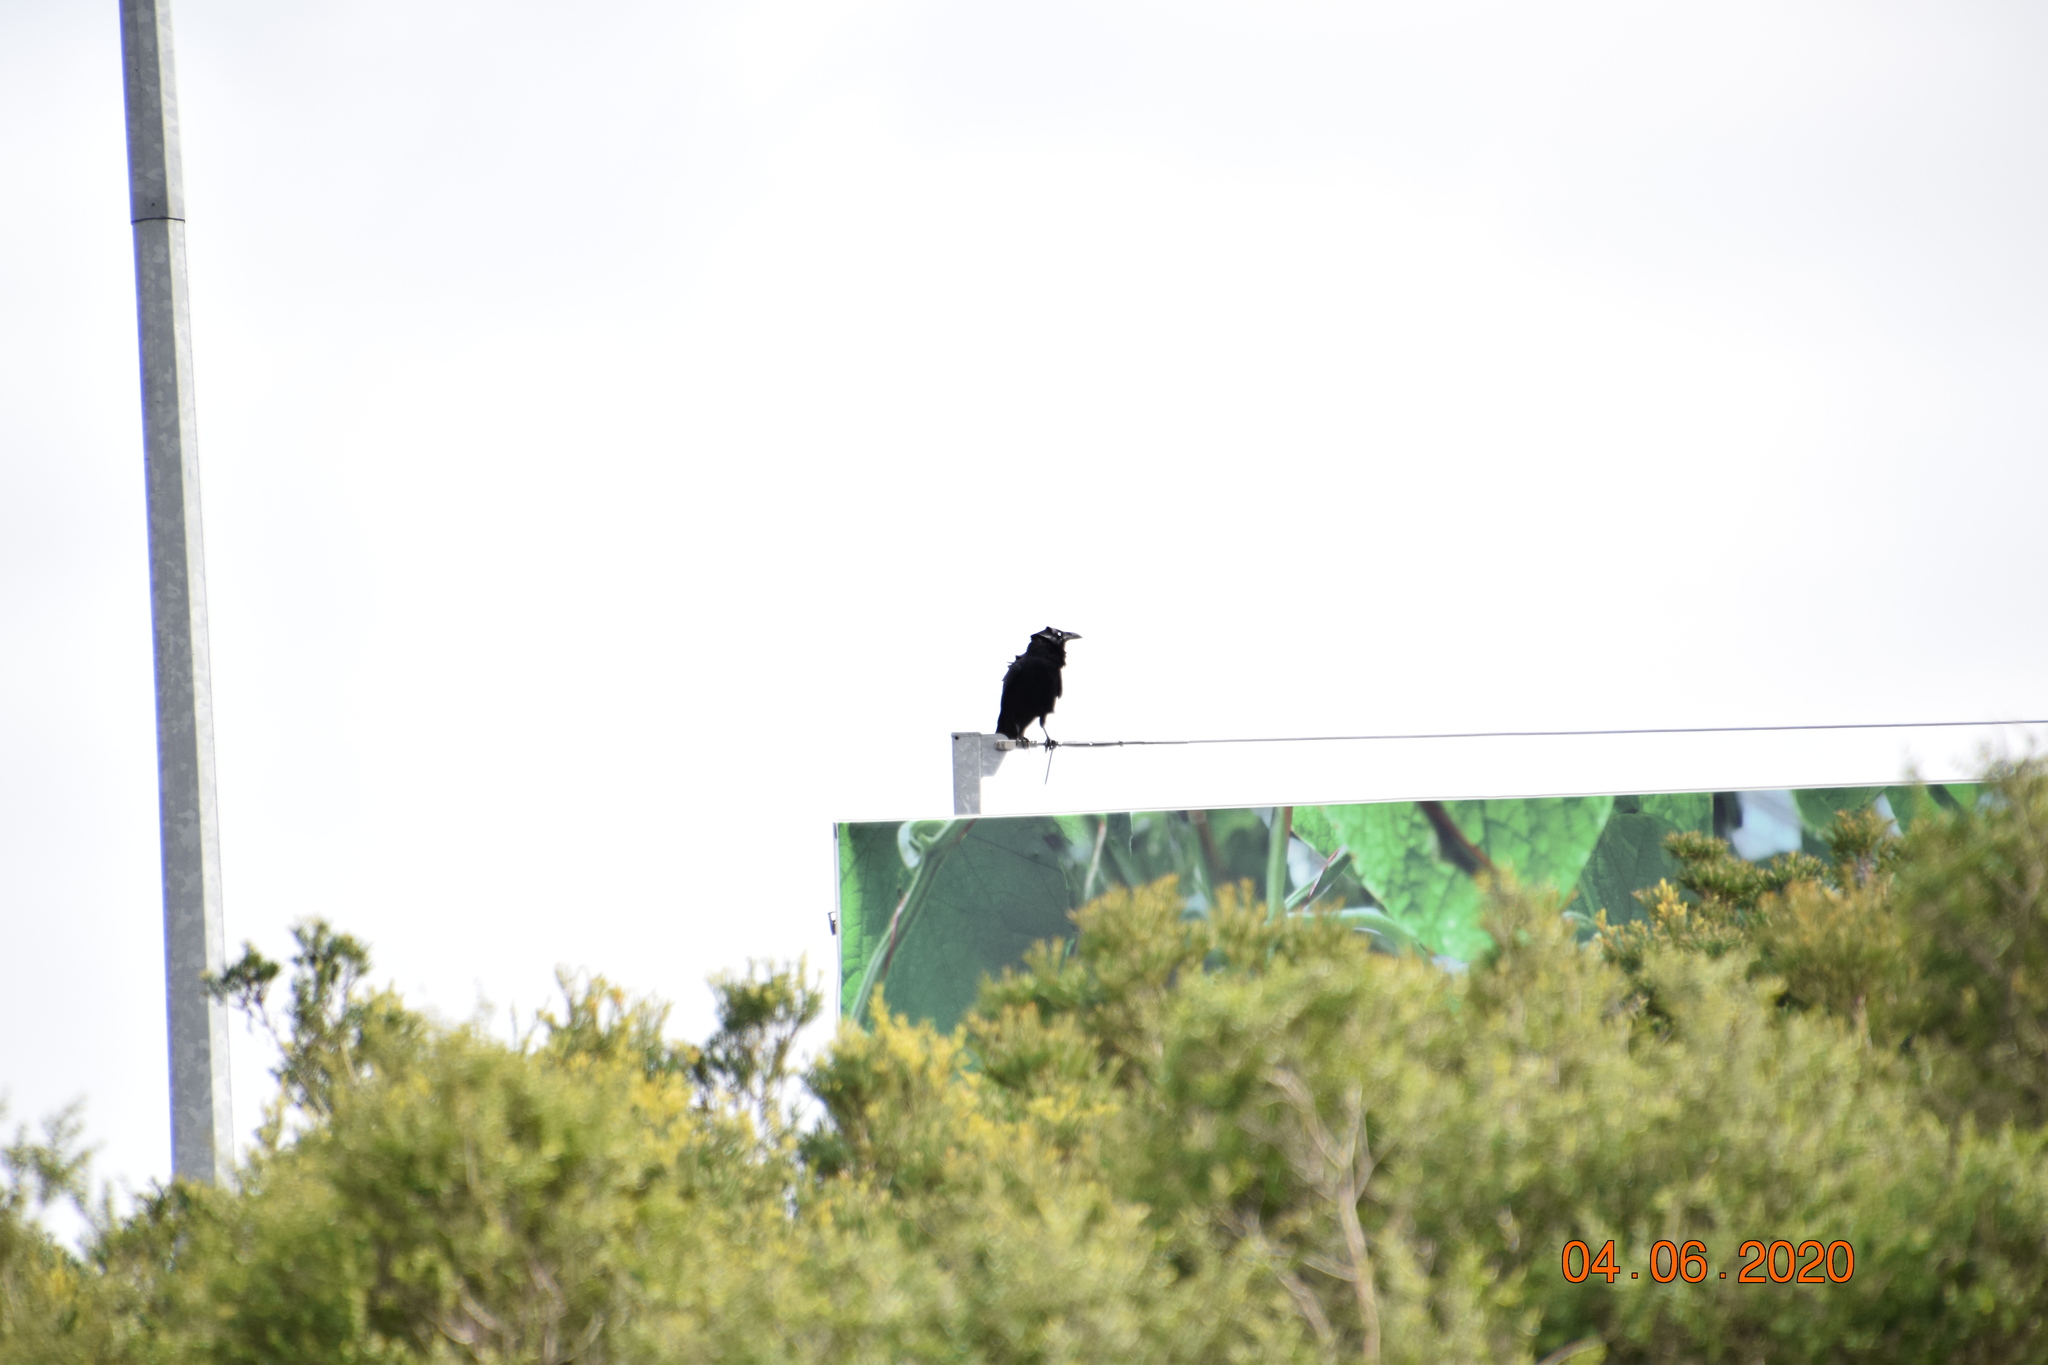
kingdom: Animalia
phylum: Chordata
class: Aves
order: Passeriformes
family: Corvidae
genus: Corvus
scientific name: Corvus coronoides
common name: Australian raven
